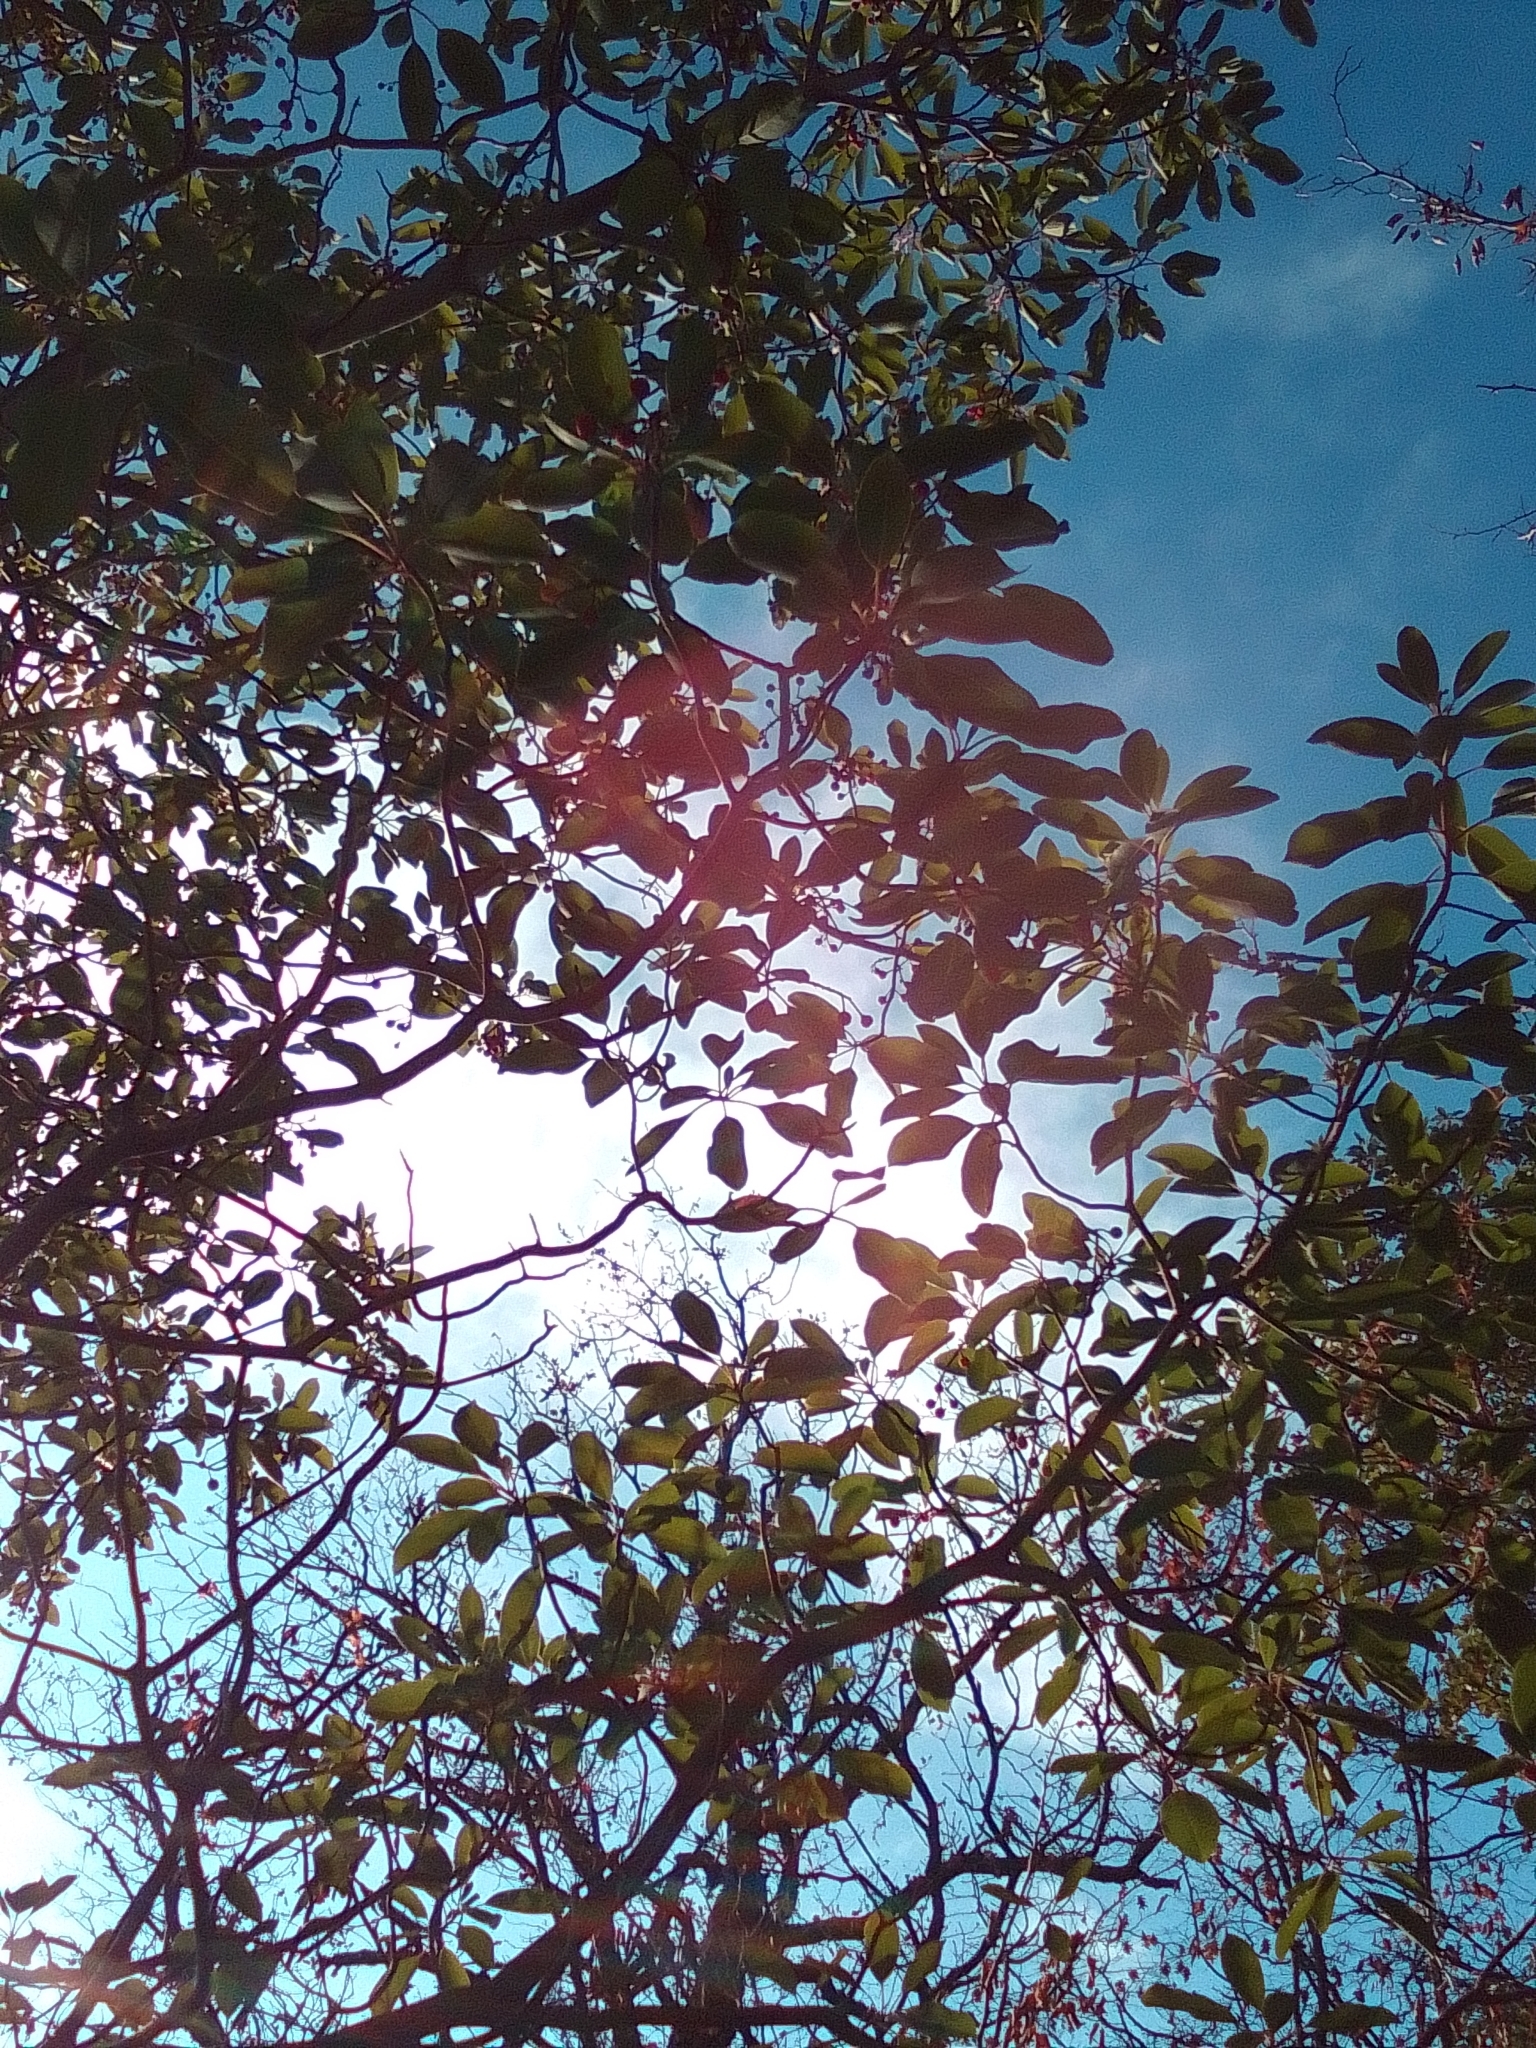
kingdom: Plantae
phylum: Tracheophyta
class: Magnoliopsida
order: Ericales
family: Ericaceae
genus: Arbutus
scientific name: Arbutus andrachne
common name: Greek strawberry tree
